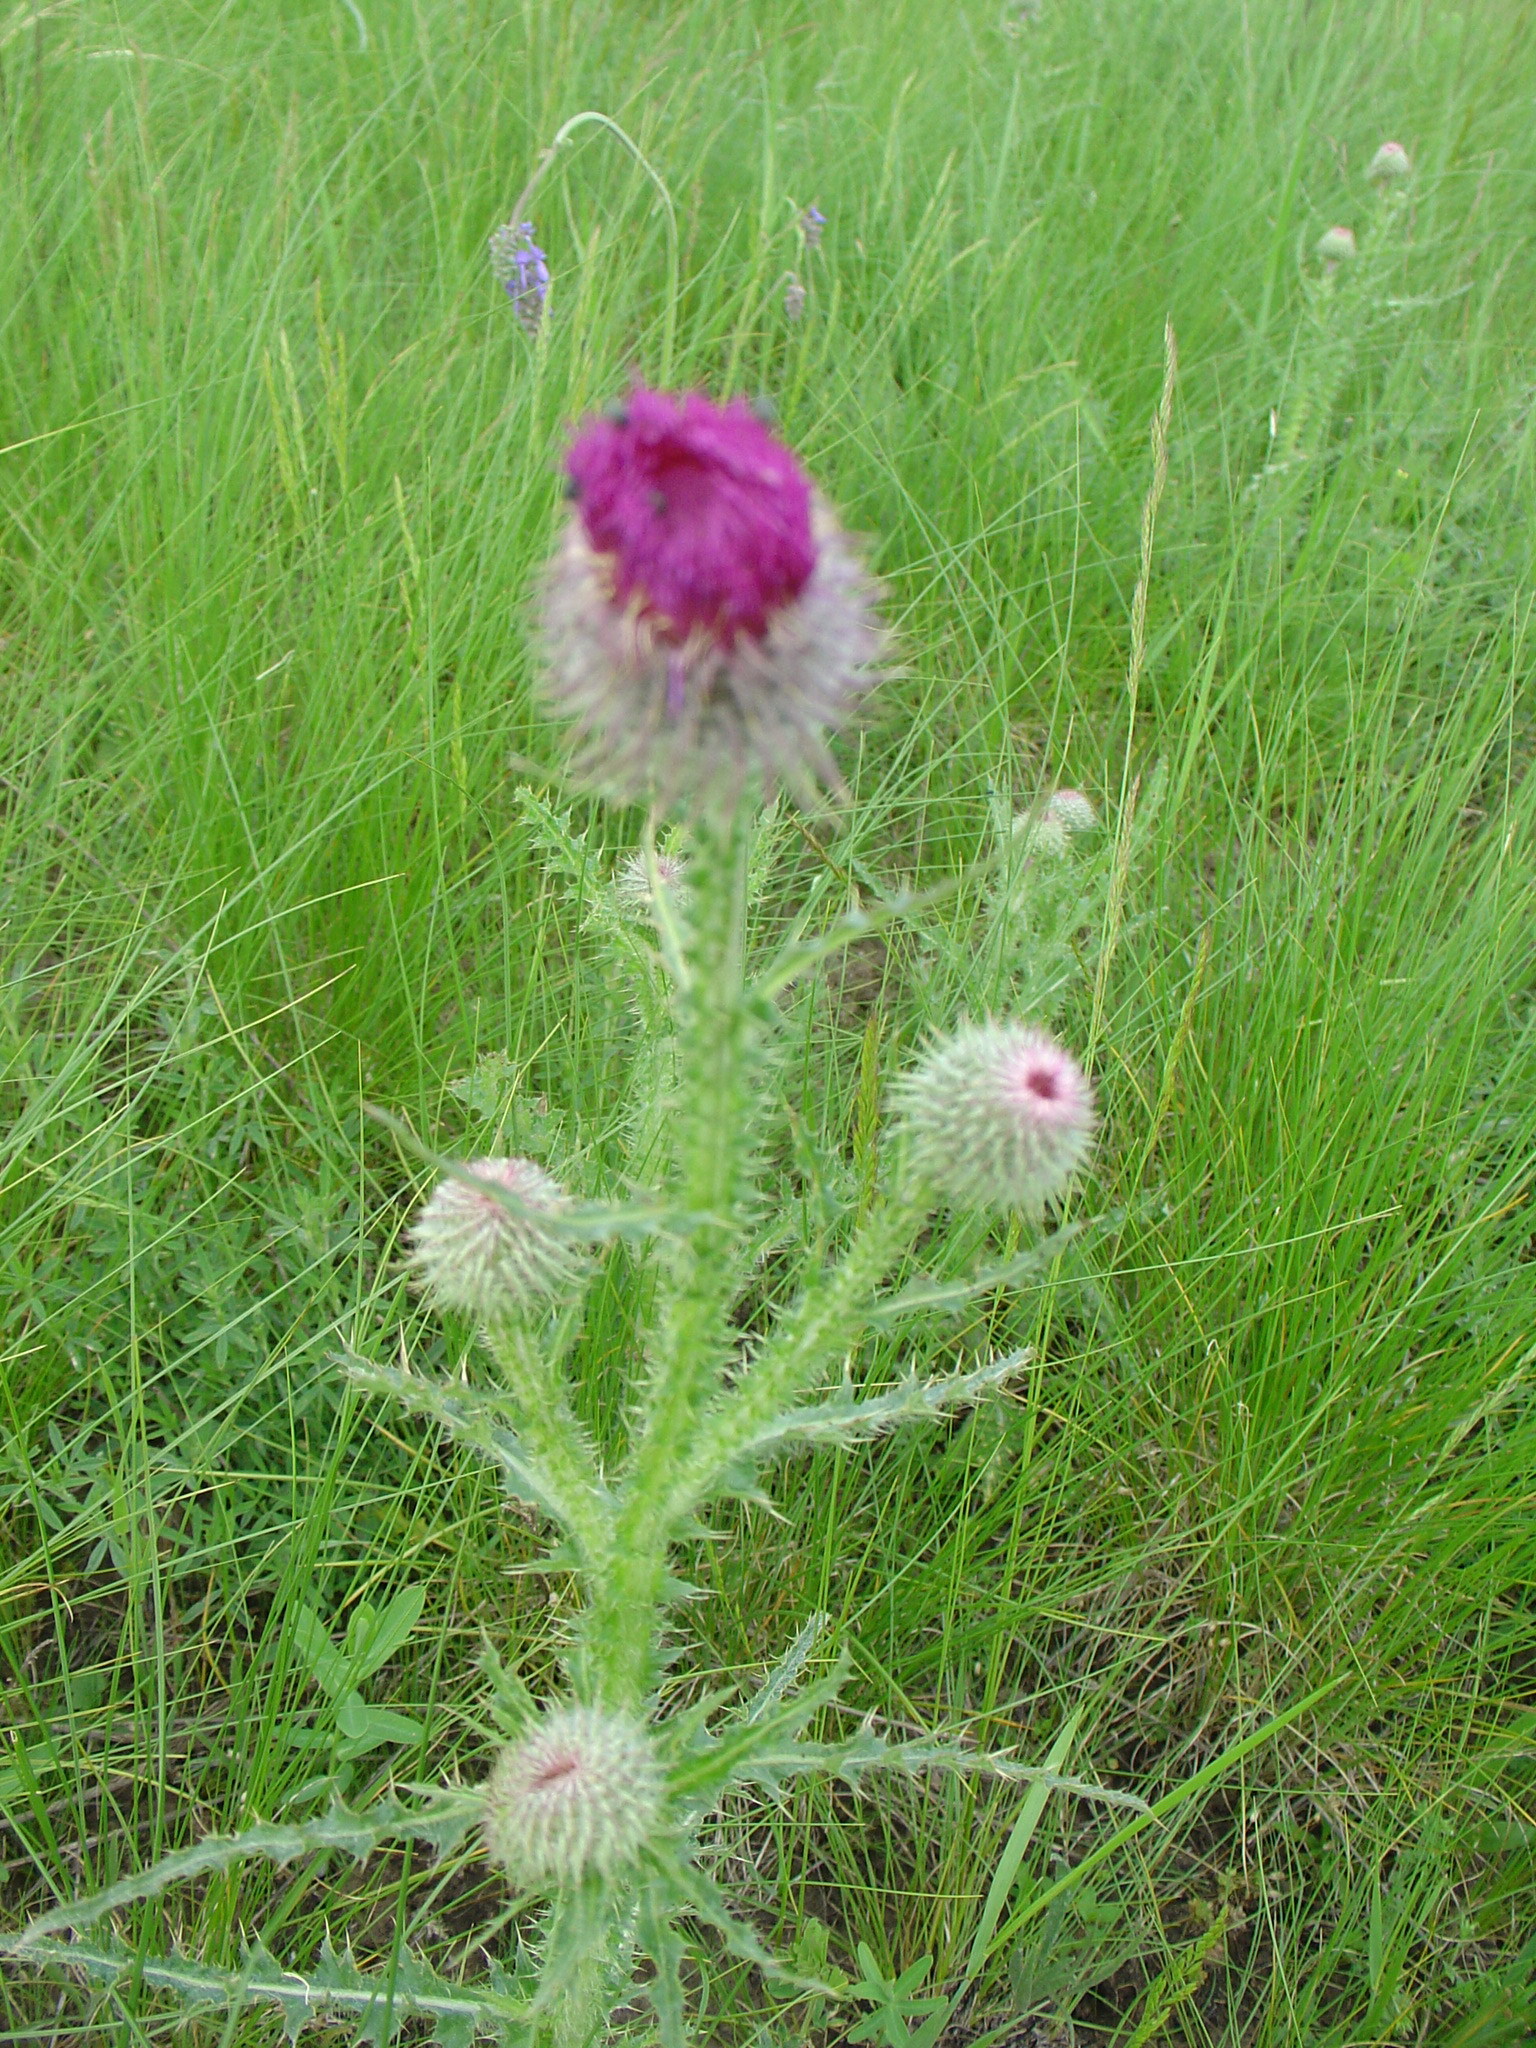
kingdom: Plantae
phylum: Tracheophyta
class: Magnoliopsida
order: Asterales
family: Asteraceae
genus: Carduus
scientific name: Carduus uncinatus
